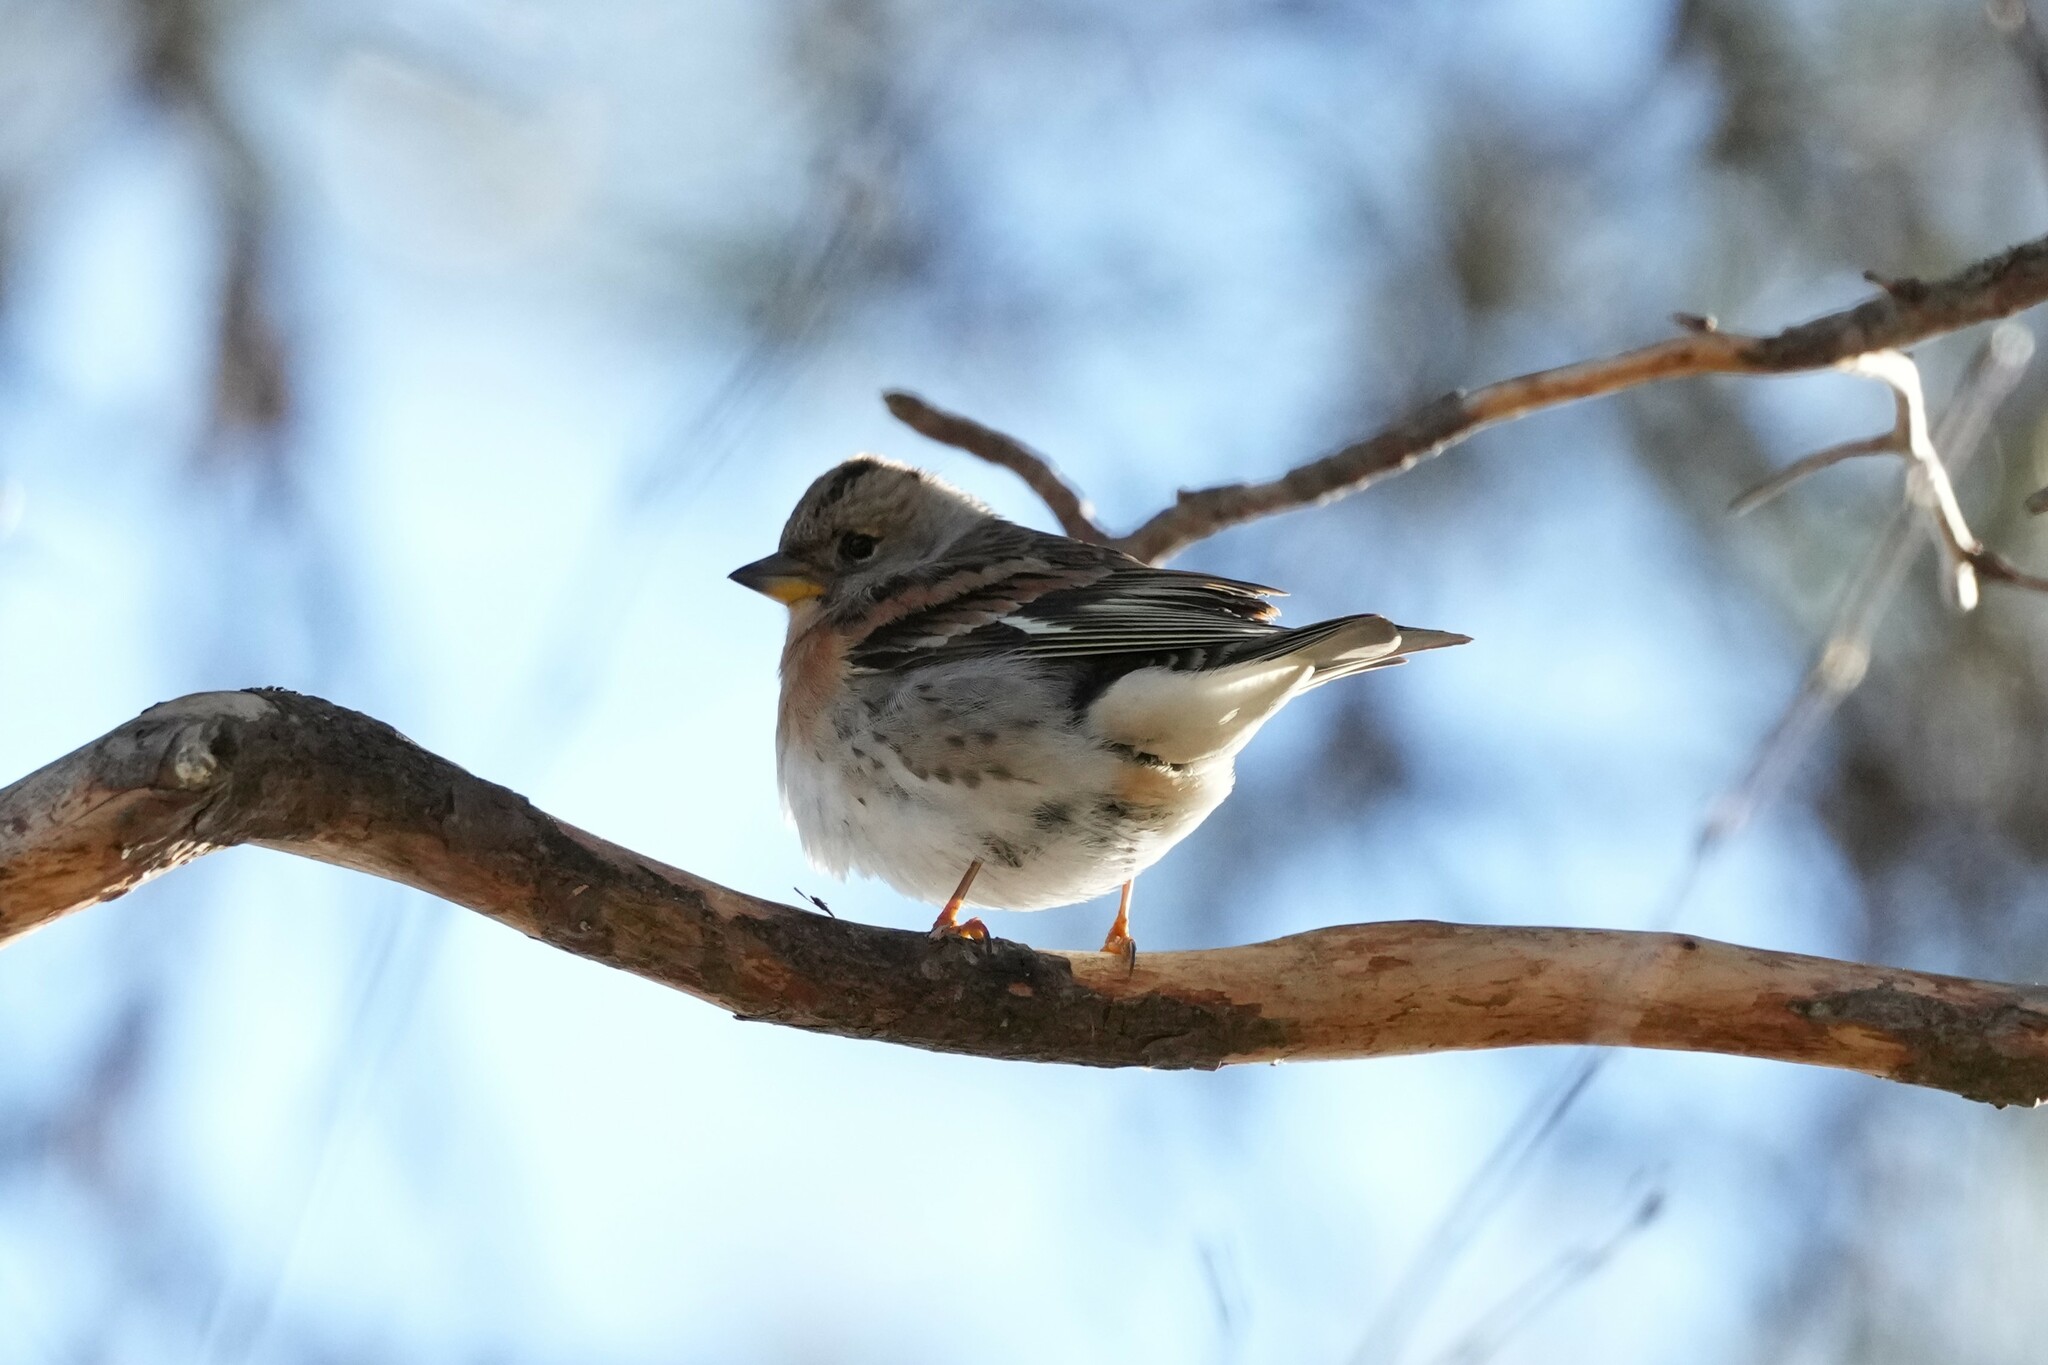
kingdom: Animalia
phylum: Chordata
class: Aves
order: Passeriformes
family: Fringillidae
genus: Fringilla
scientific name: Fringilla montifringilla
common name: Brambling
